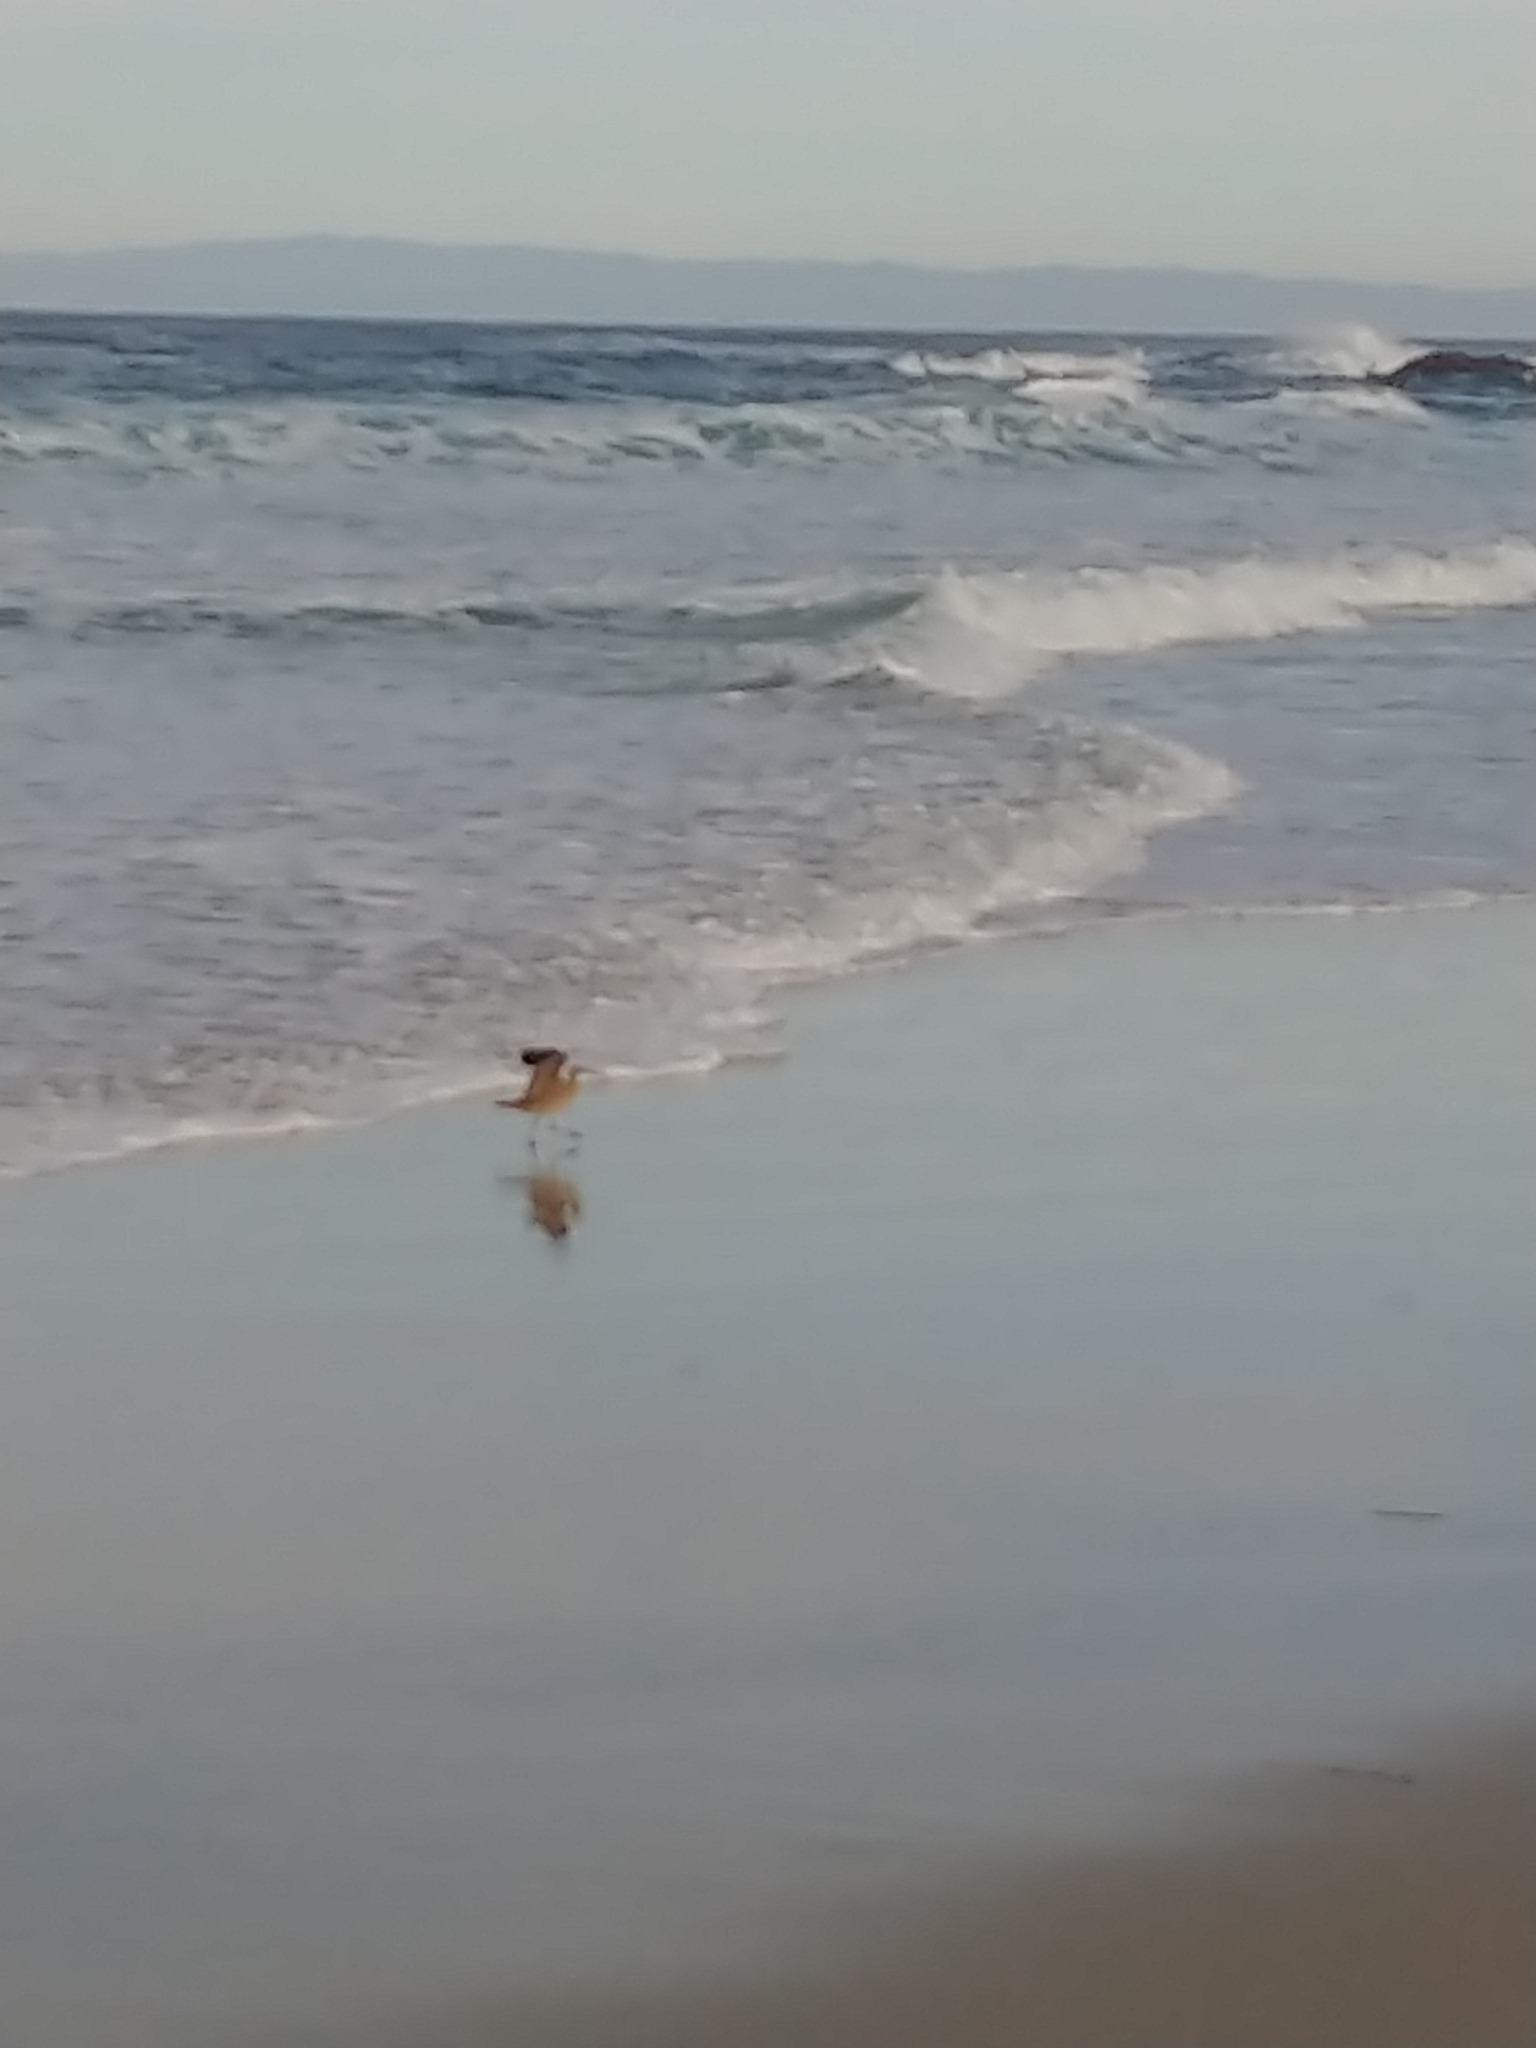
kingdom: Animalia
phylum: Chordata
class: Aves
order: Charadriiformes
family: Scolopacidae
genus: Numenius
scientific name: Numenius phaeopus
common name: Whimbrel
